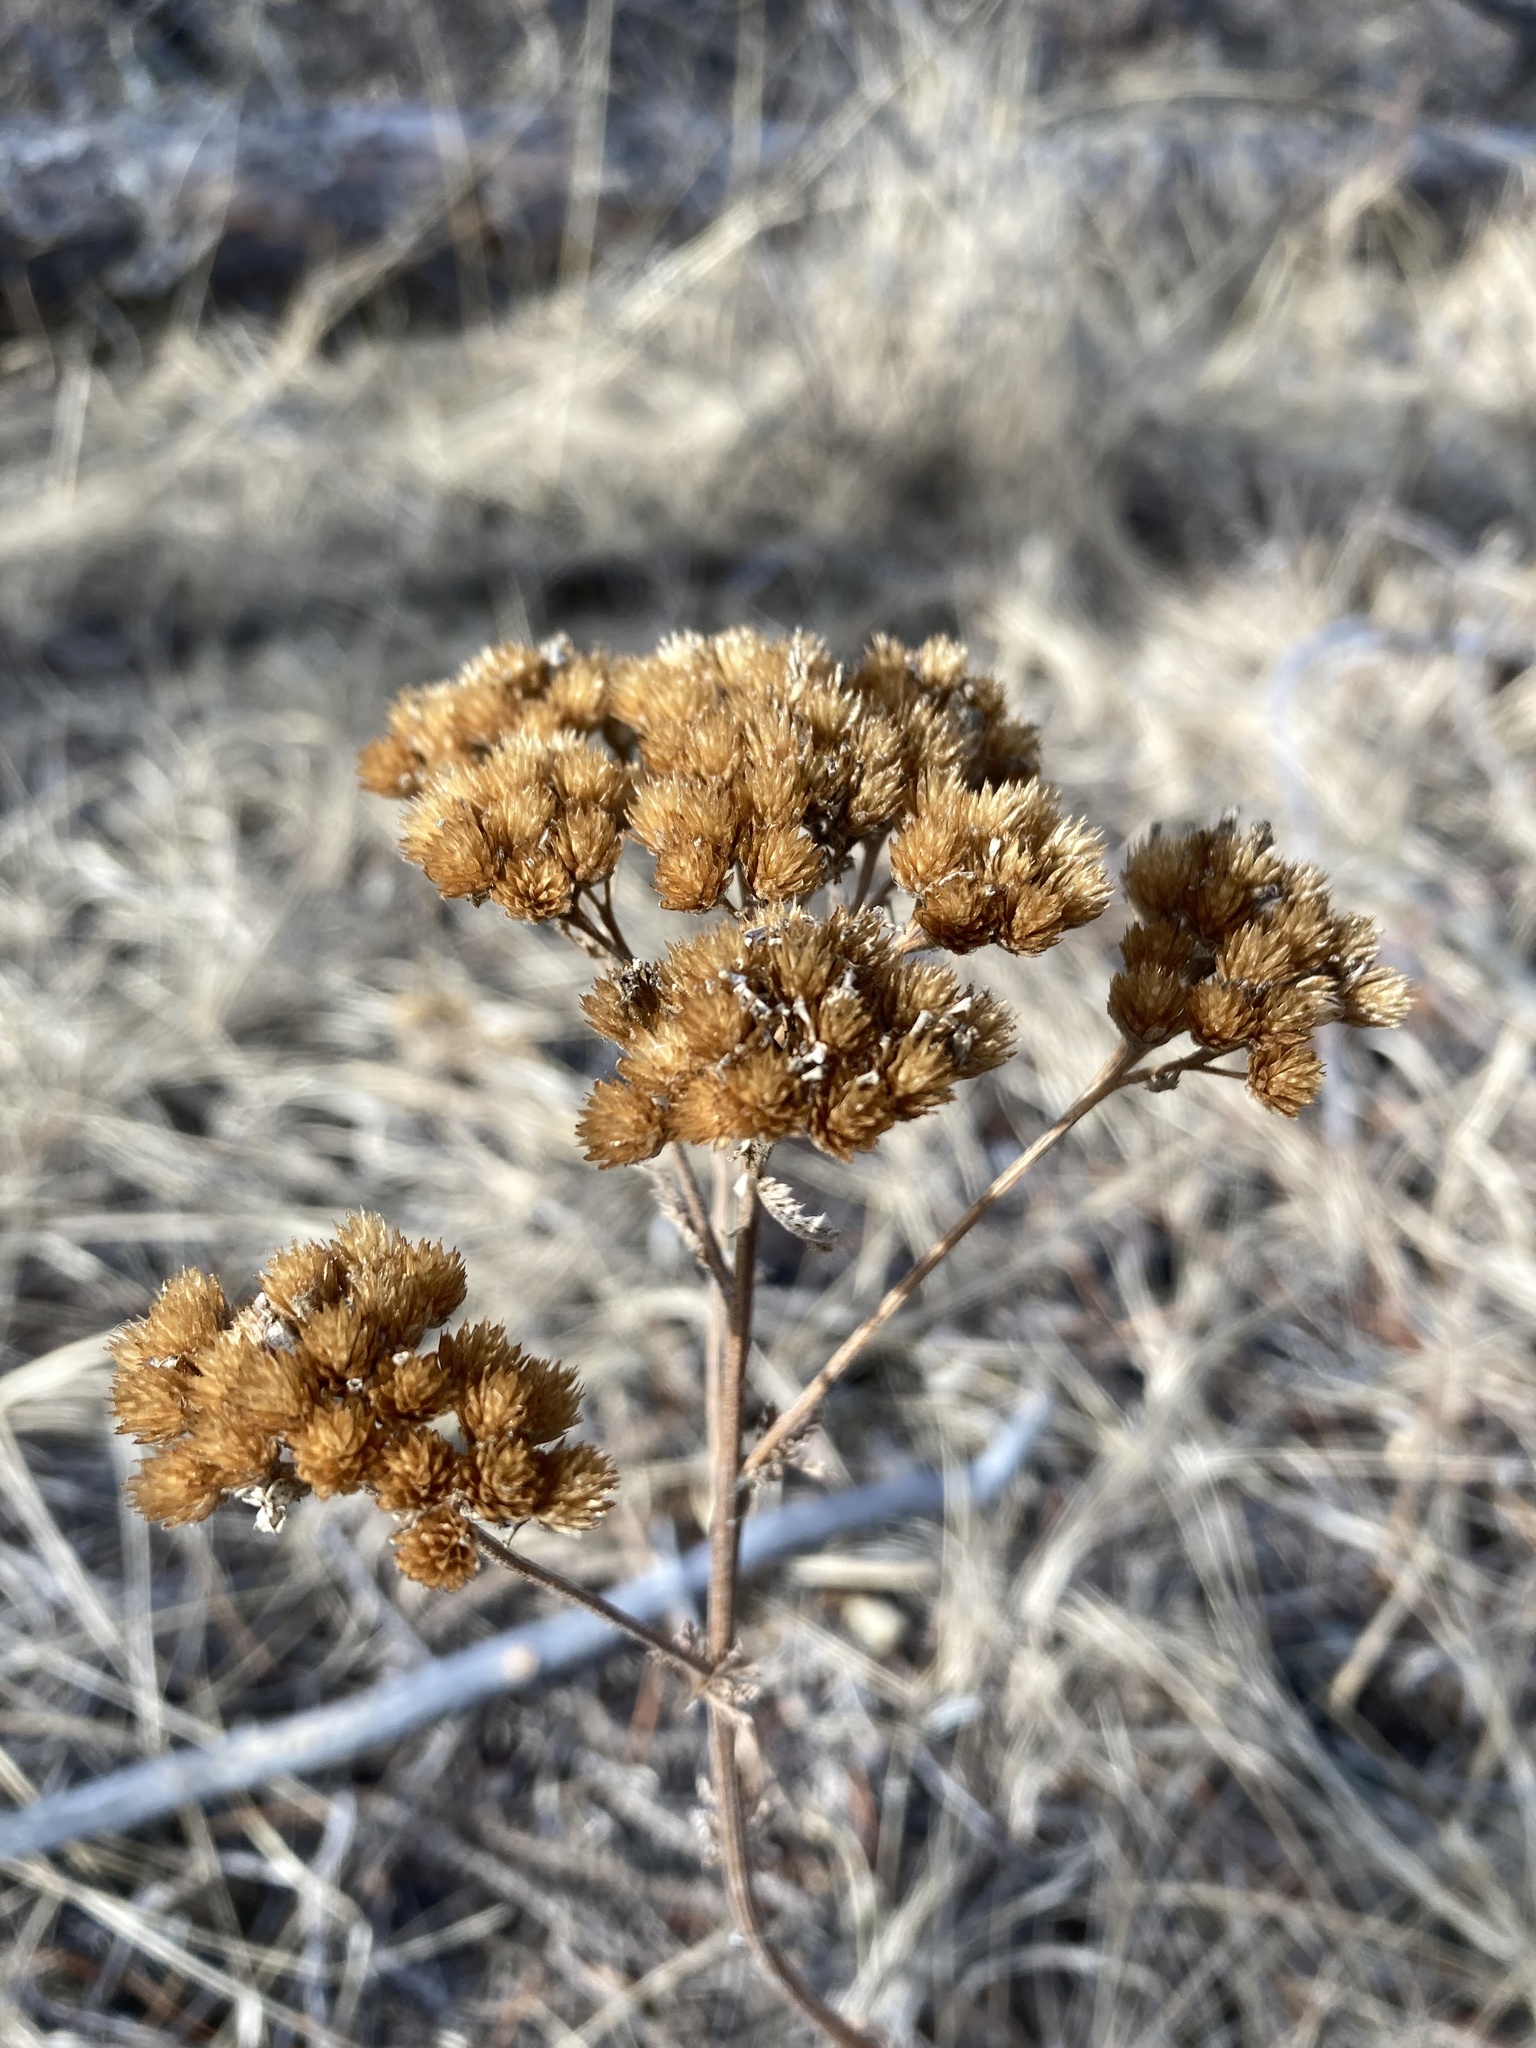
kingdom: Plantae
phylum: Tracheophyta
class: Magnoliopsida
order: Asterales
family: Asteraceae
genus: Achillea
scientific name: Achillea millefolium
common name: Yarrow
